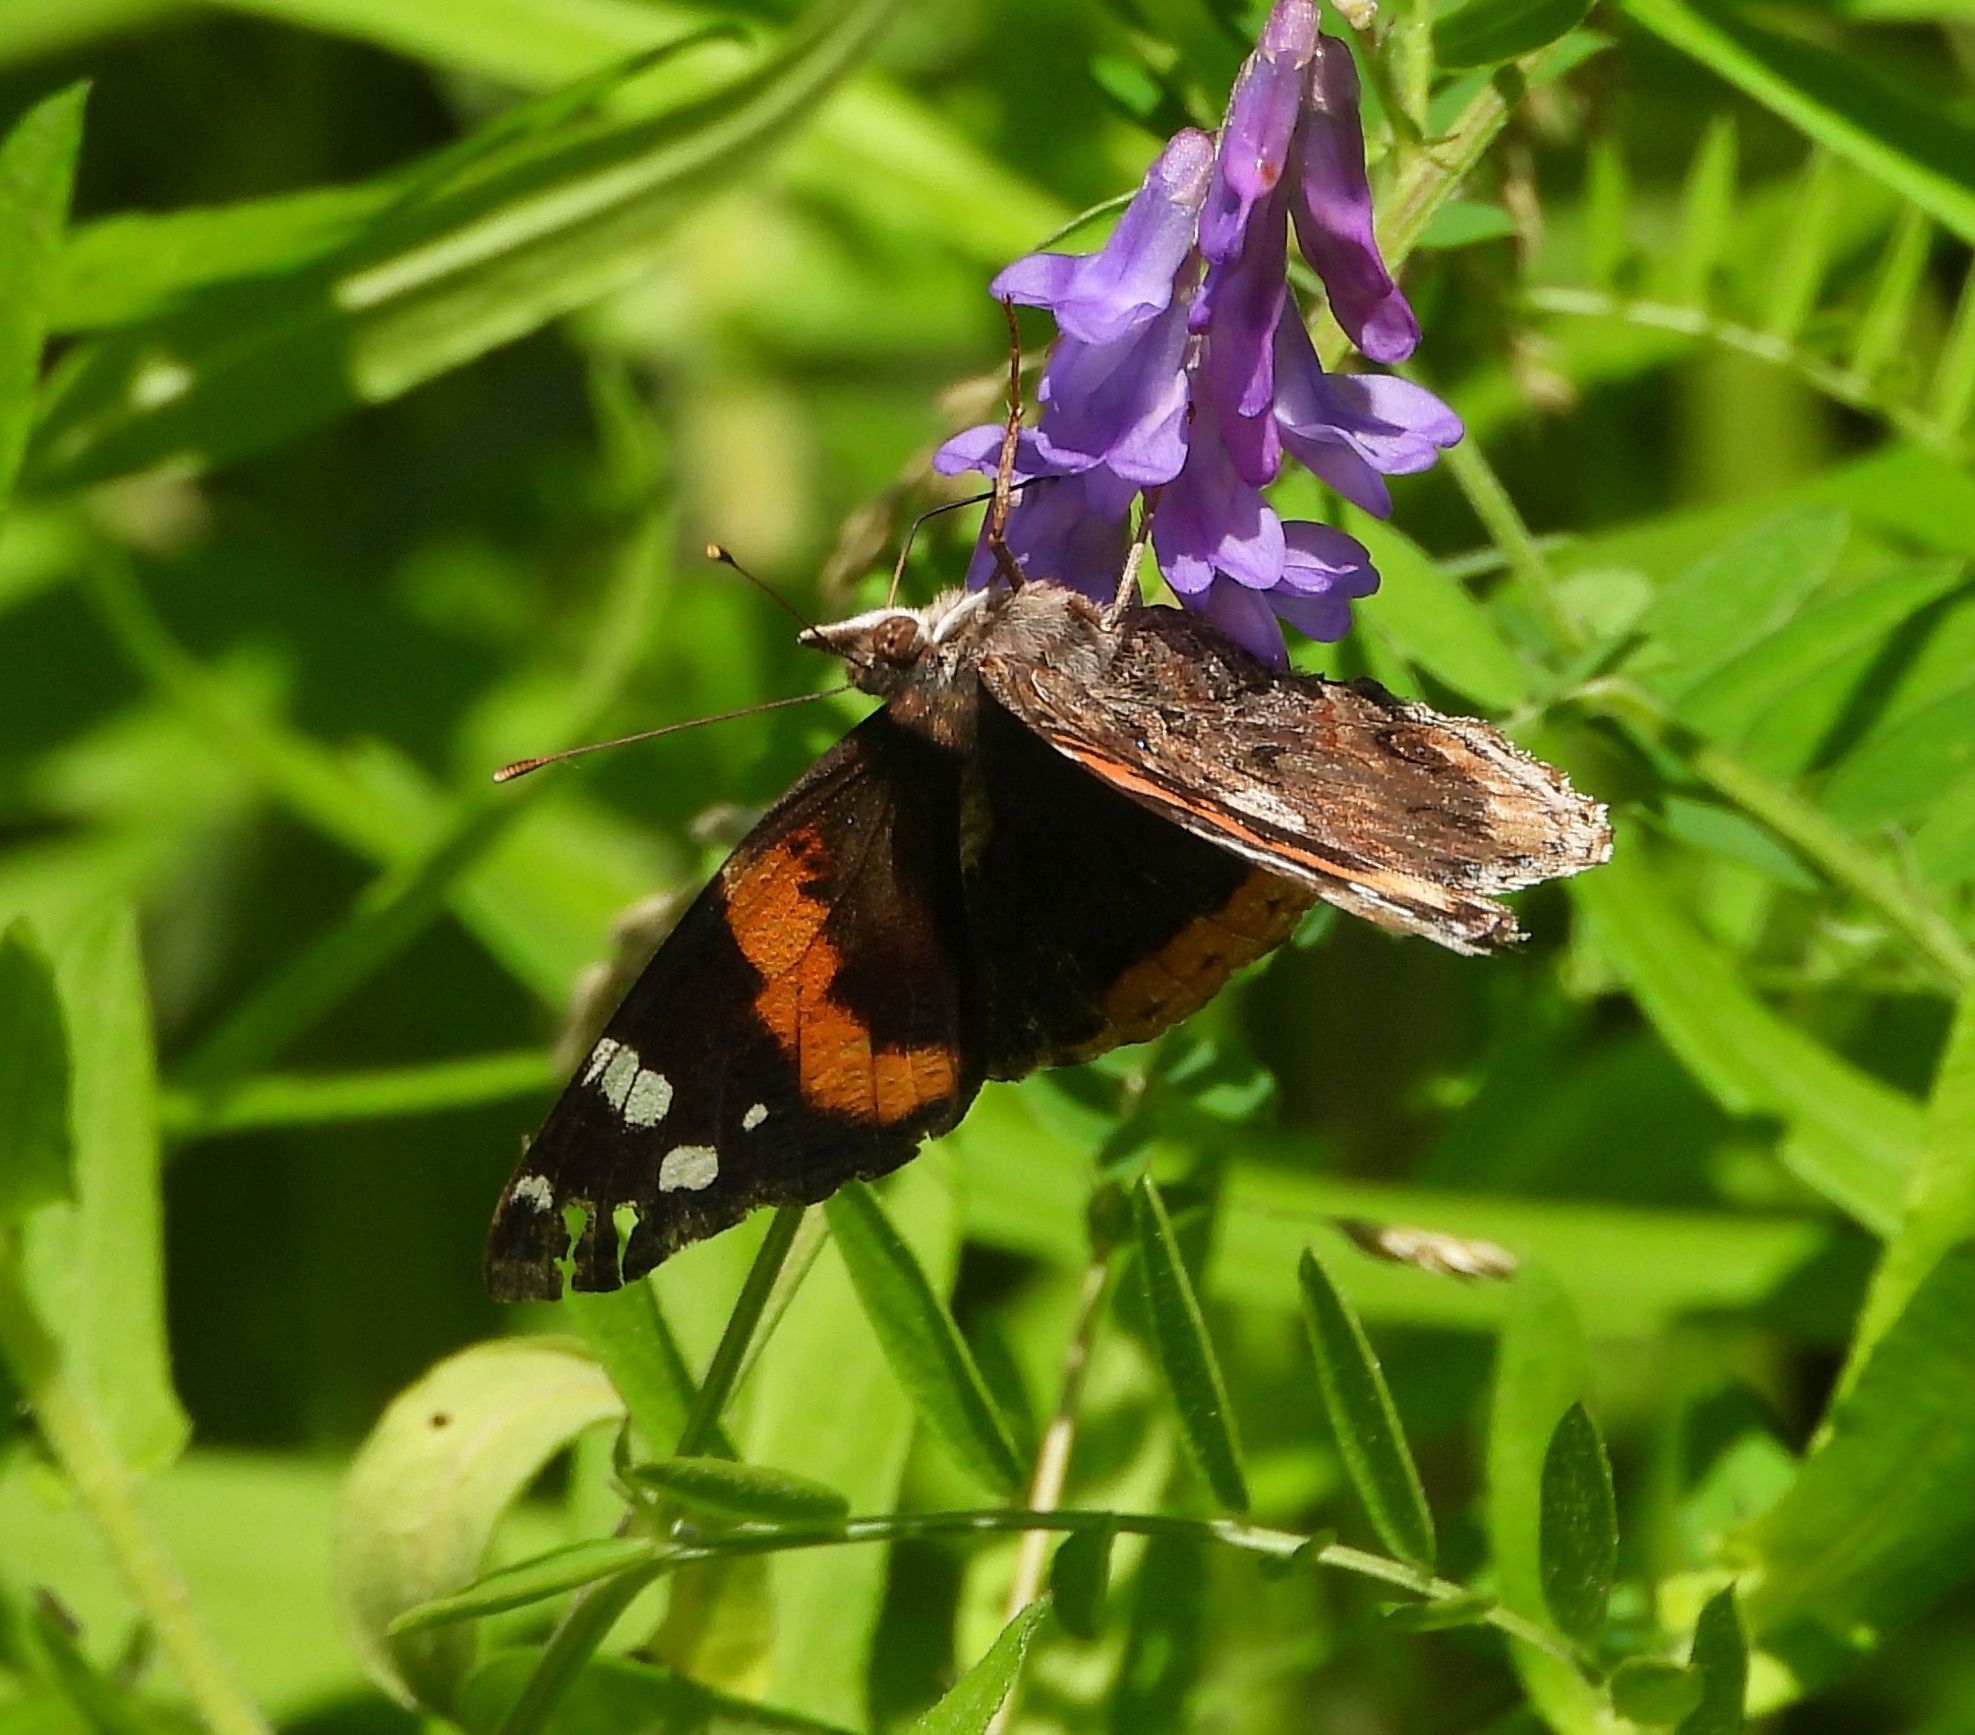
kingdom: Animalia
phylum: Arthropoda
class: Insecta
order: Lepidoptera
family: Nymphalidae
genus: Vanessa
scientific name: Vanessa atalanta
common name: Red admiral
